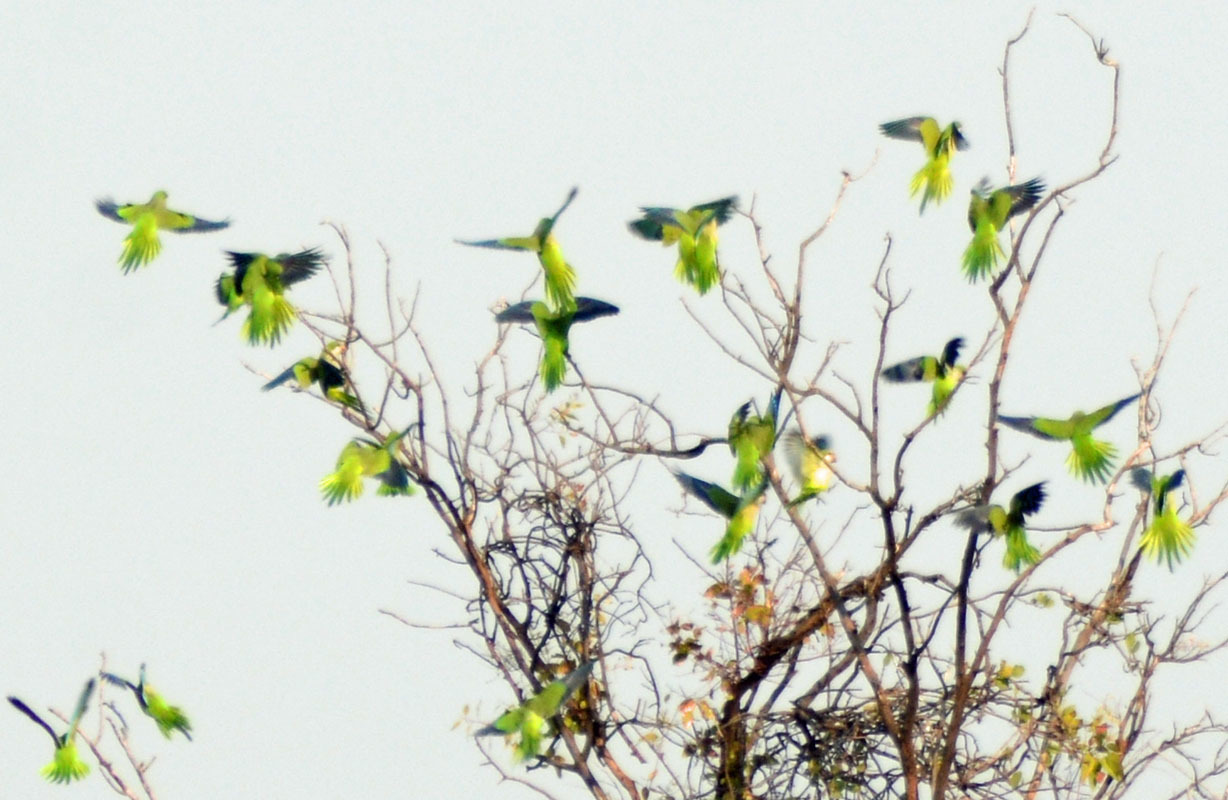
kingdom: Animalia
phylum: Chordata
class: Aves
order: Psittaciformes
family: Psittacidae
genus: Myiopsitta
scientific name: Myiopsitta monachus
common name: Monk parakeet
